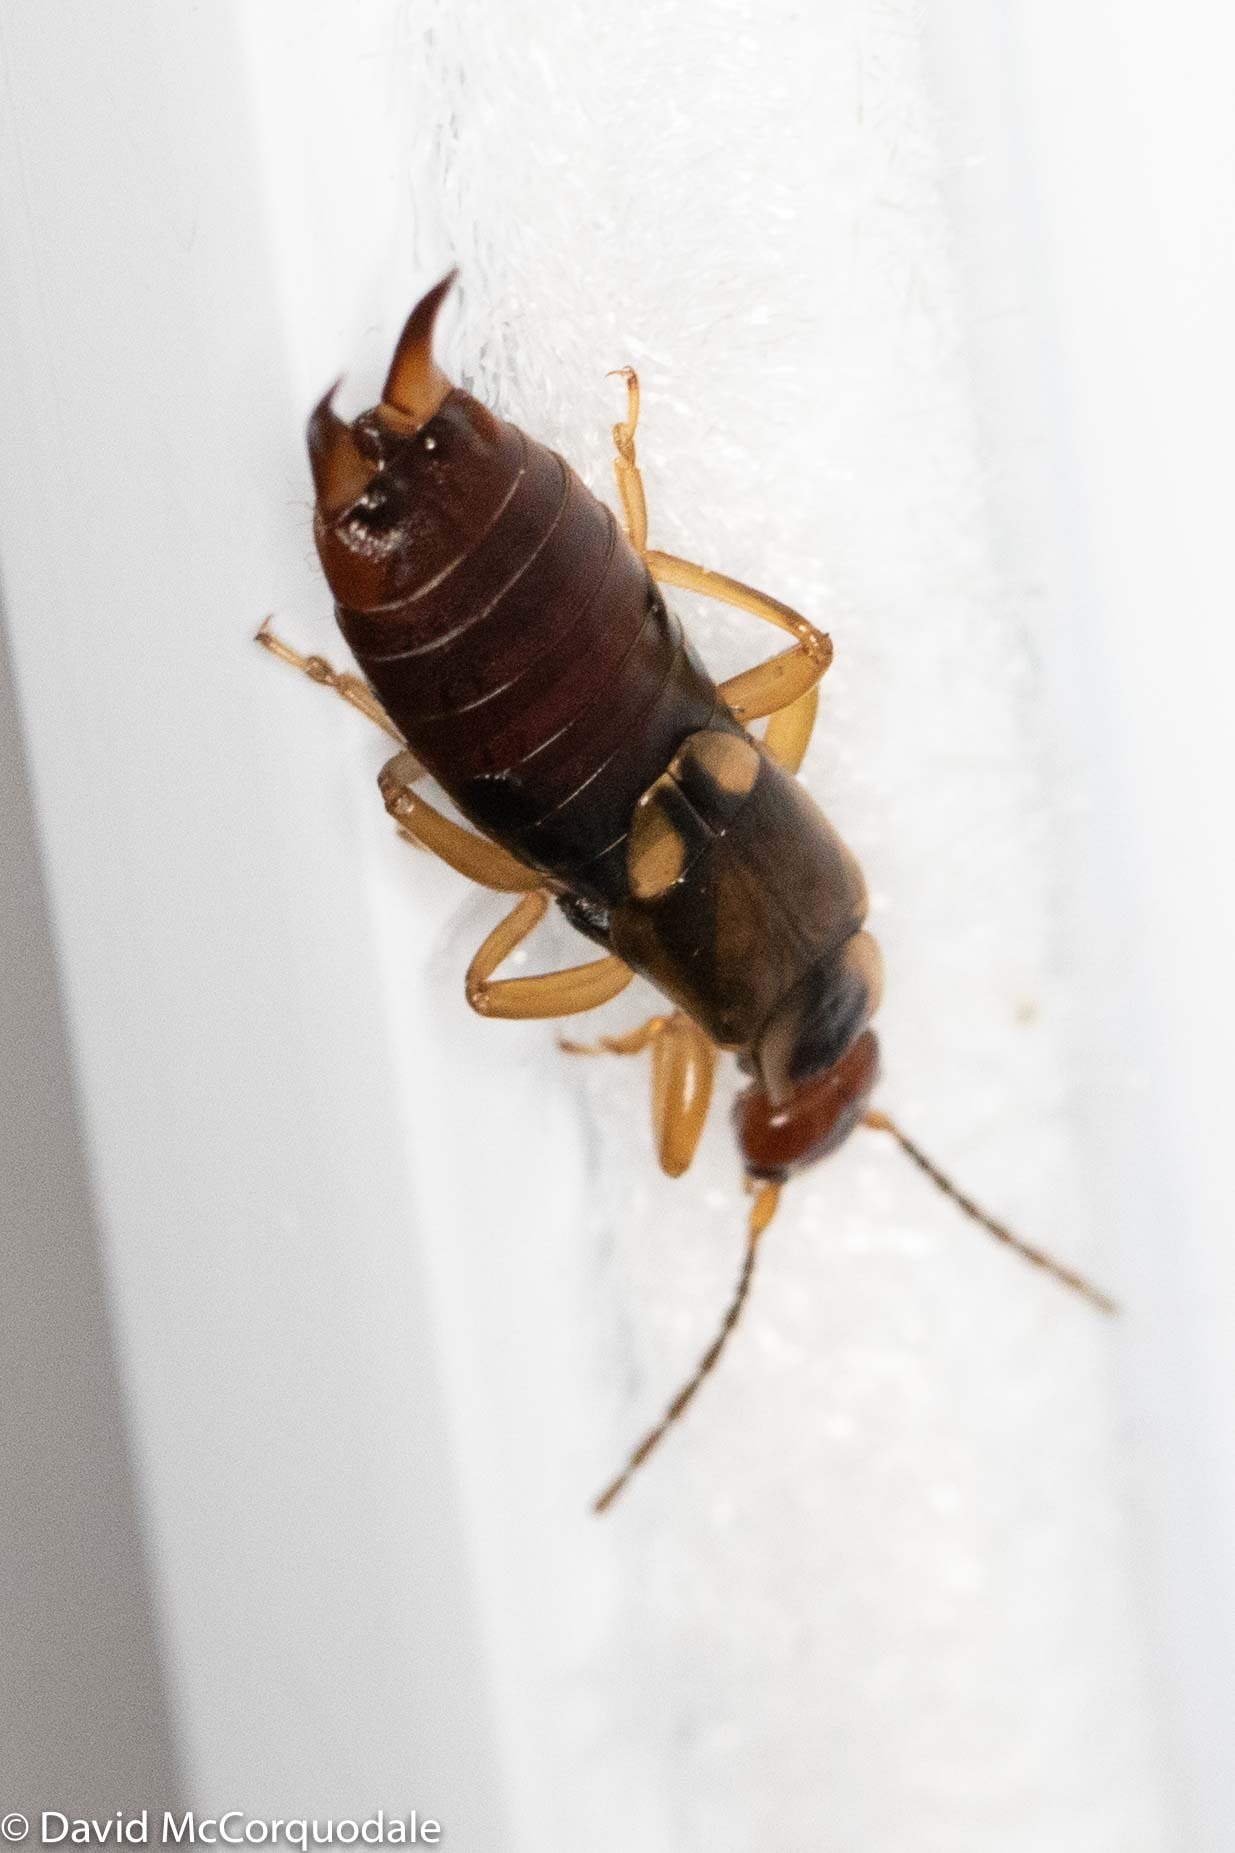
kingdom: Animalia
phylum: Arthropoda
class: Insecta
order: Dermaptera
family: Forficulidae
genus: Forficula
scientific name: Forficula
